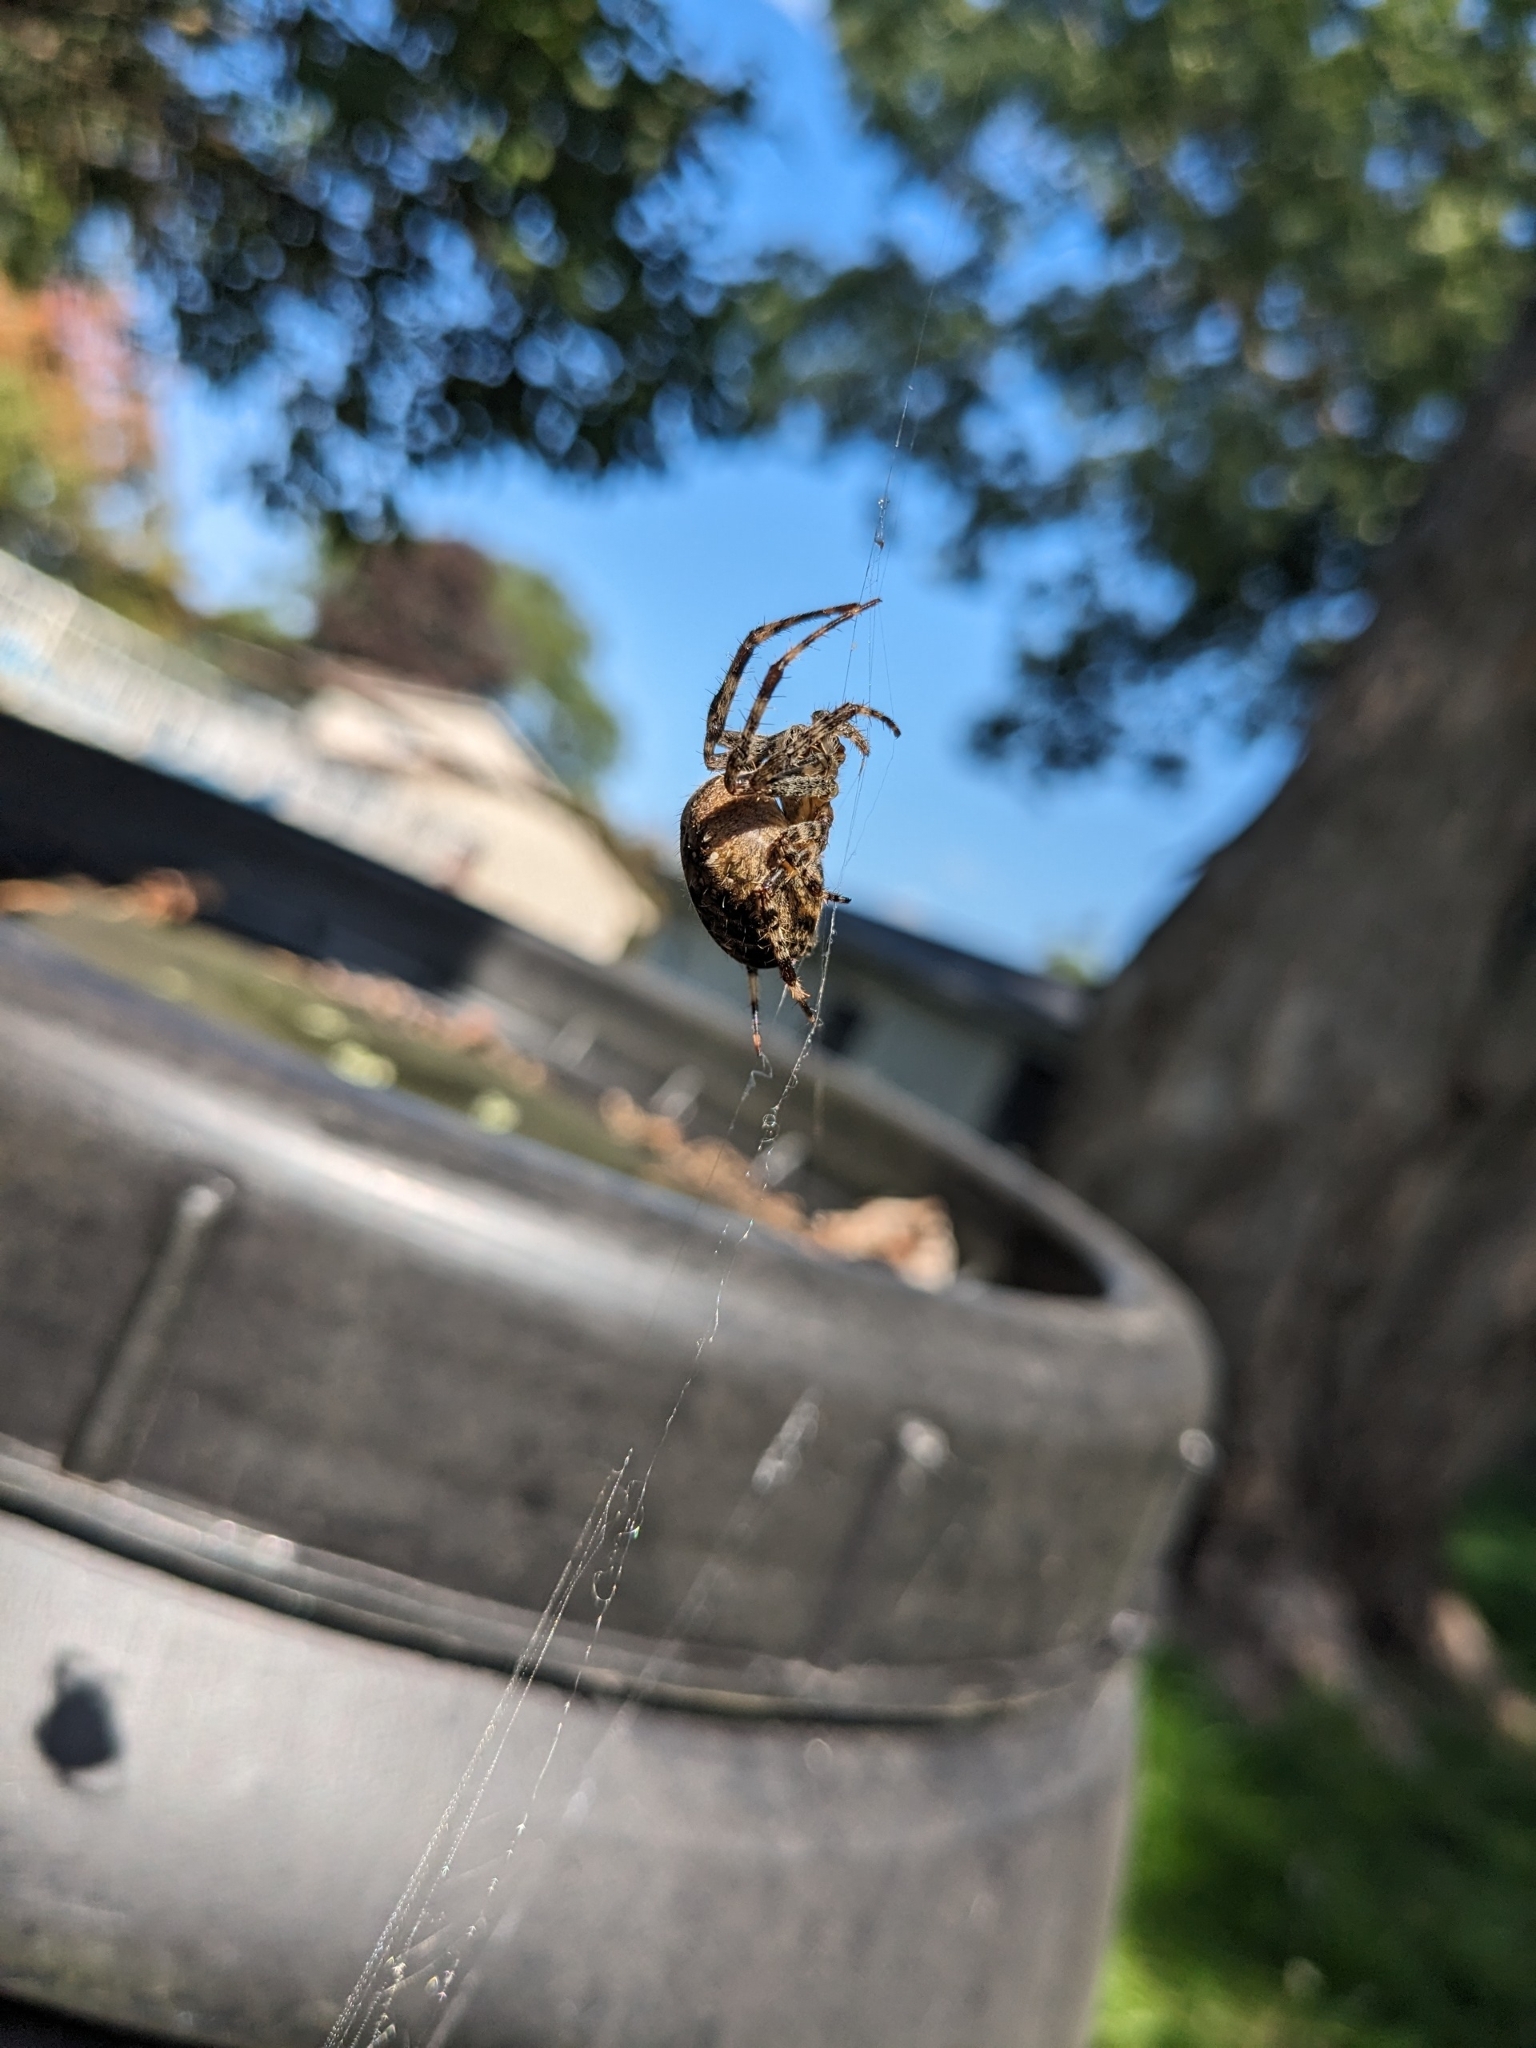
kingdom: Animalia
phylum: Arthropoda
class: Arachnida
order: Araneae
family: Araneidae
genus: Araneus
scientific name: Araneus diadematus
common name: Cross orbweaver
